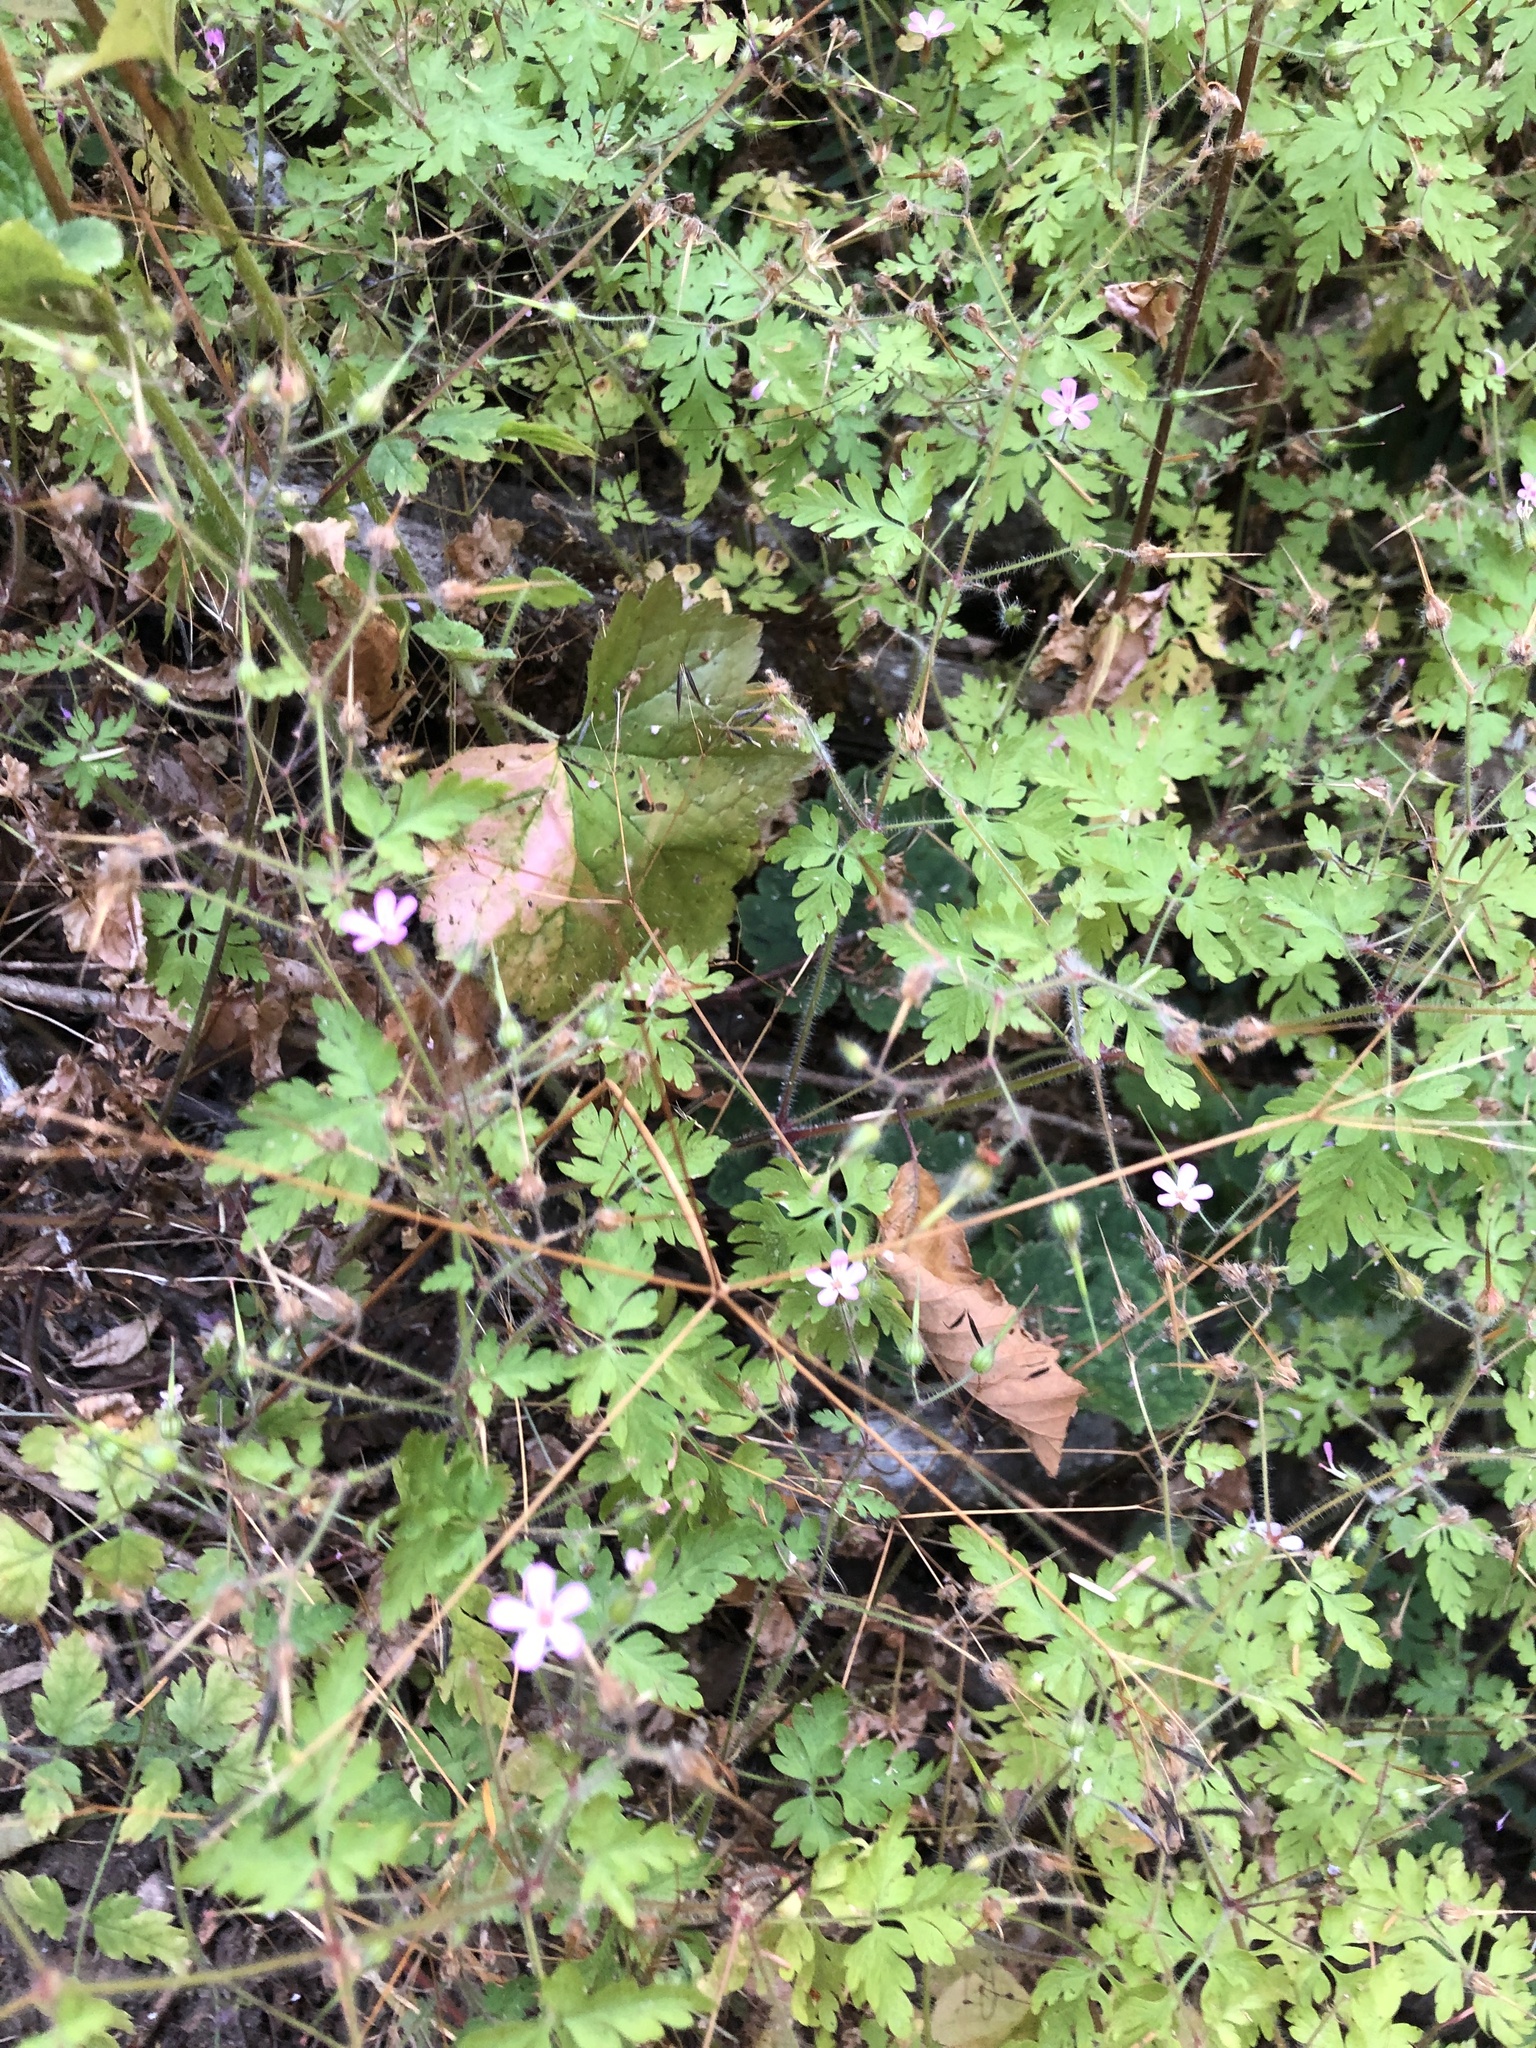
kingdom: Plantae
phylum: Tracheophyta
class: Magnoliopsida
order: Geraniales
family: Geraniaceae
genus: Geranium
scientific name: Geranium robertianum
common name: Herb-robert
